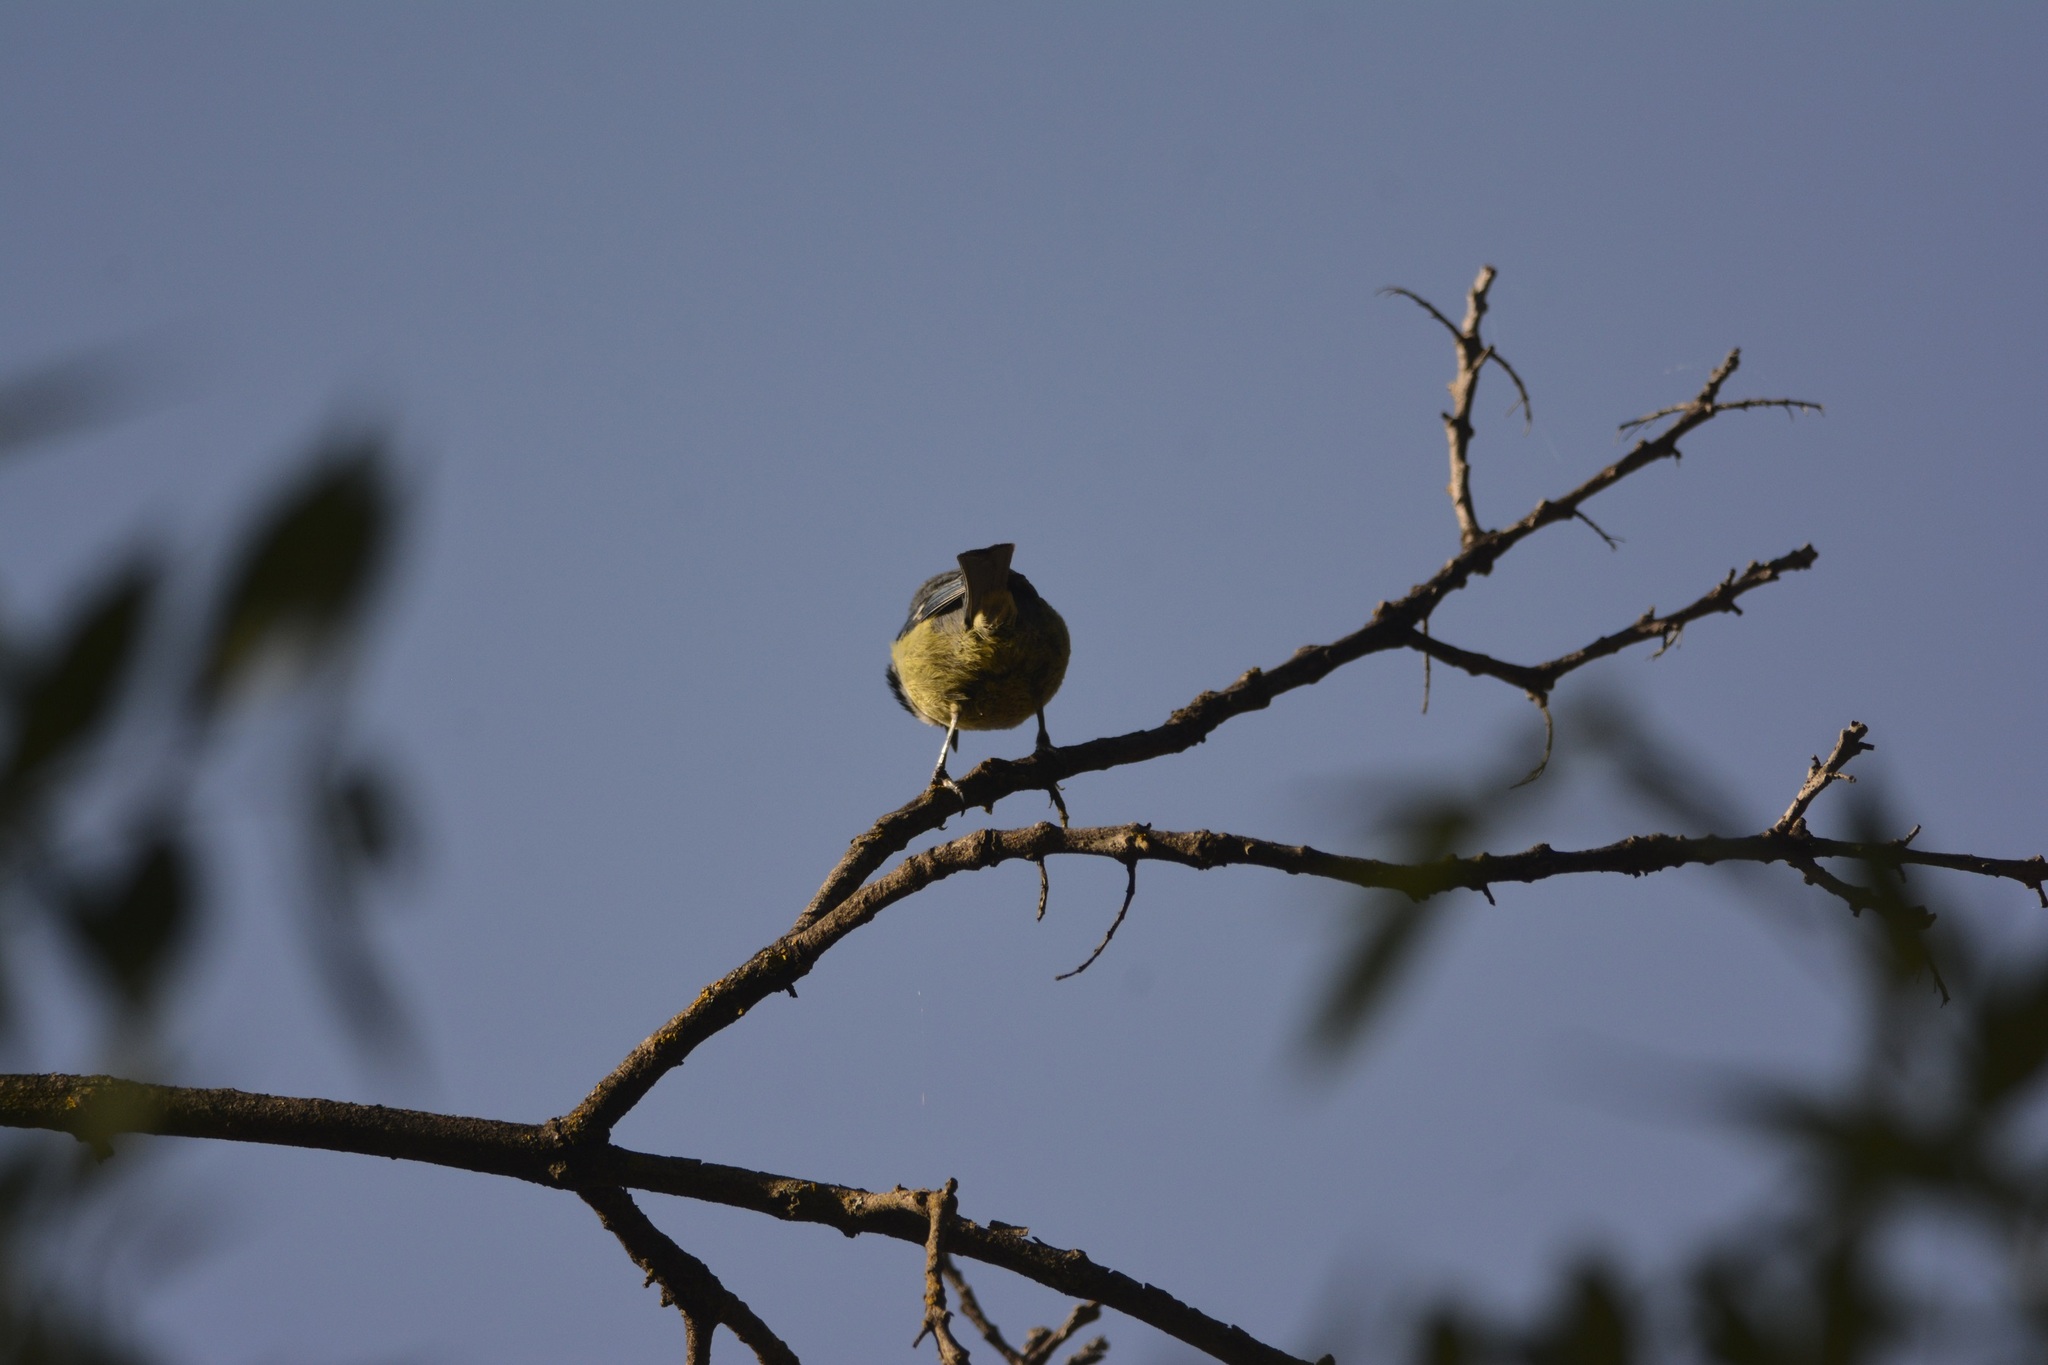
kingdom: Animalia
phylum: Chordata
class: Aves
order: Passeriformes
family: Paridae
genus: Cyanistes
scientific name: Cyanistes teneriffae
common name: African blue tit
